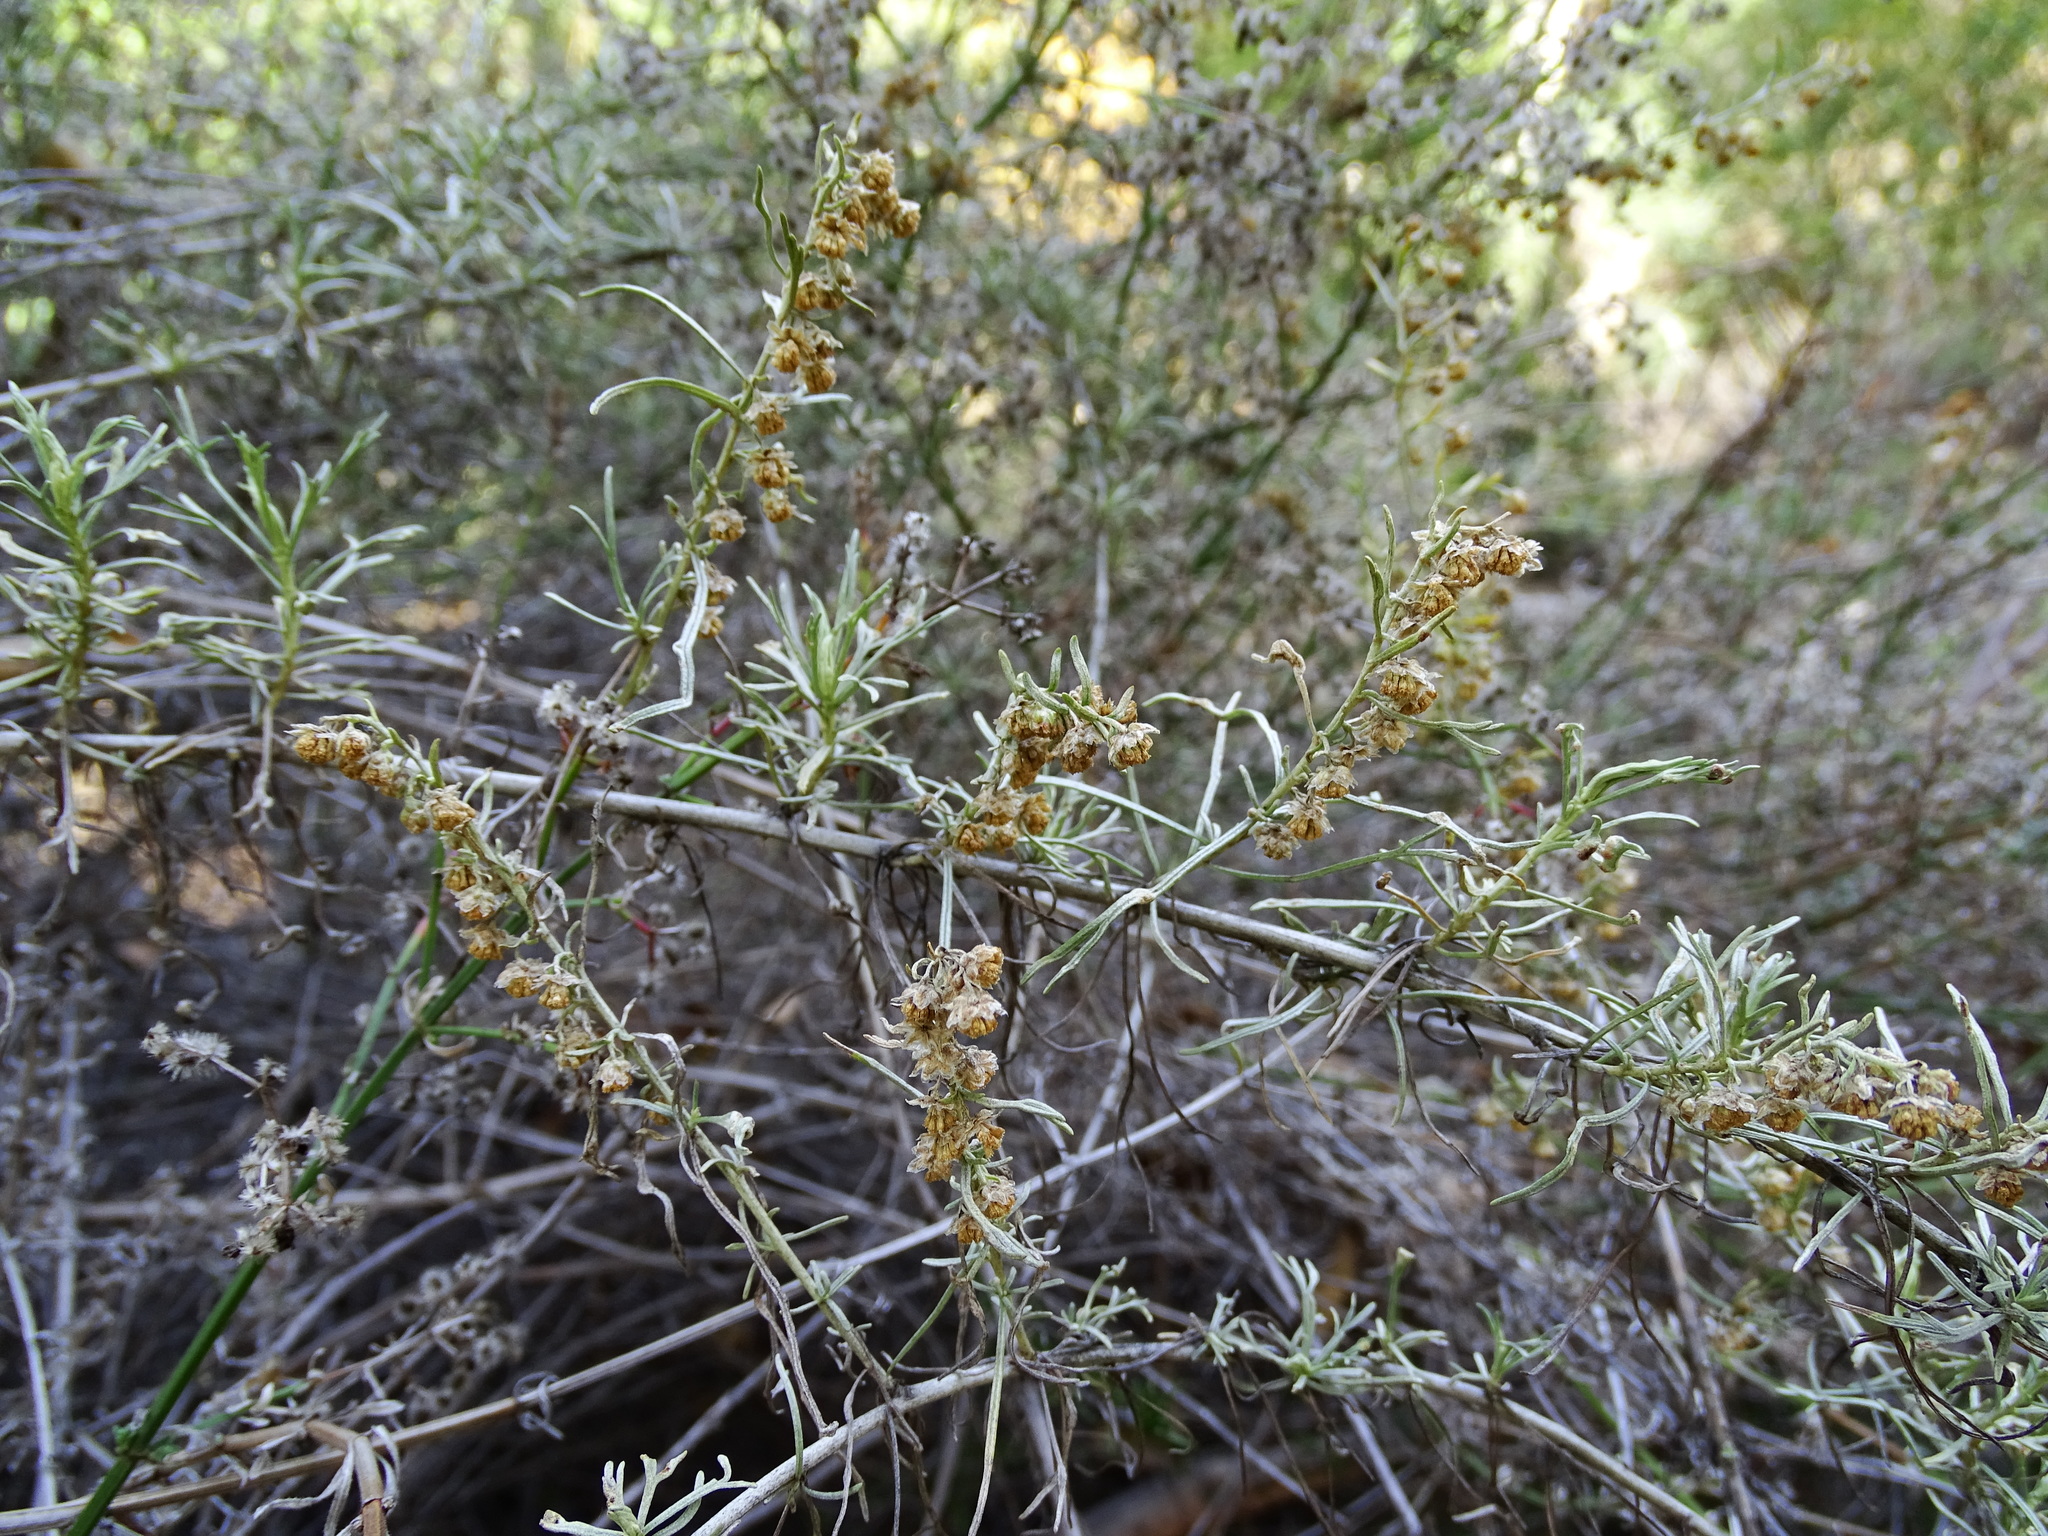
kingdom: Plantae
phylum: Tracheophyta
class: Magnoliopsida
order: Asterales
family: Asteraceae
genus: Artemisia
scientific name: Artemisia californica
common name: California sagebrush
